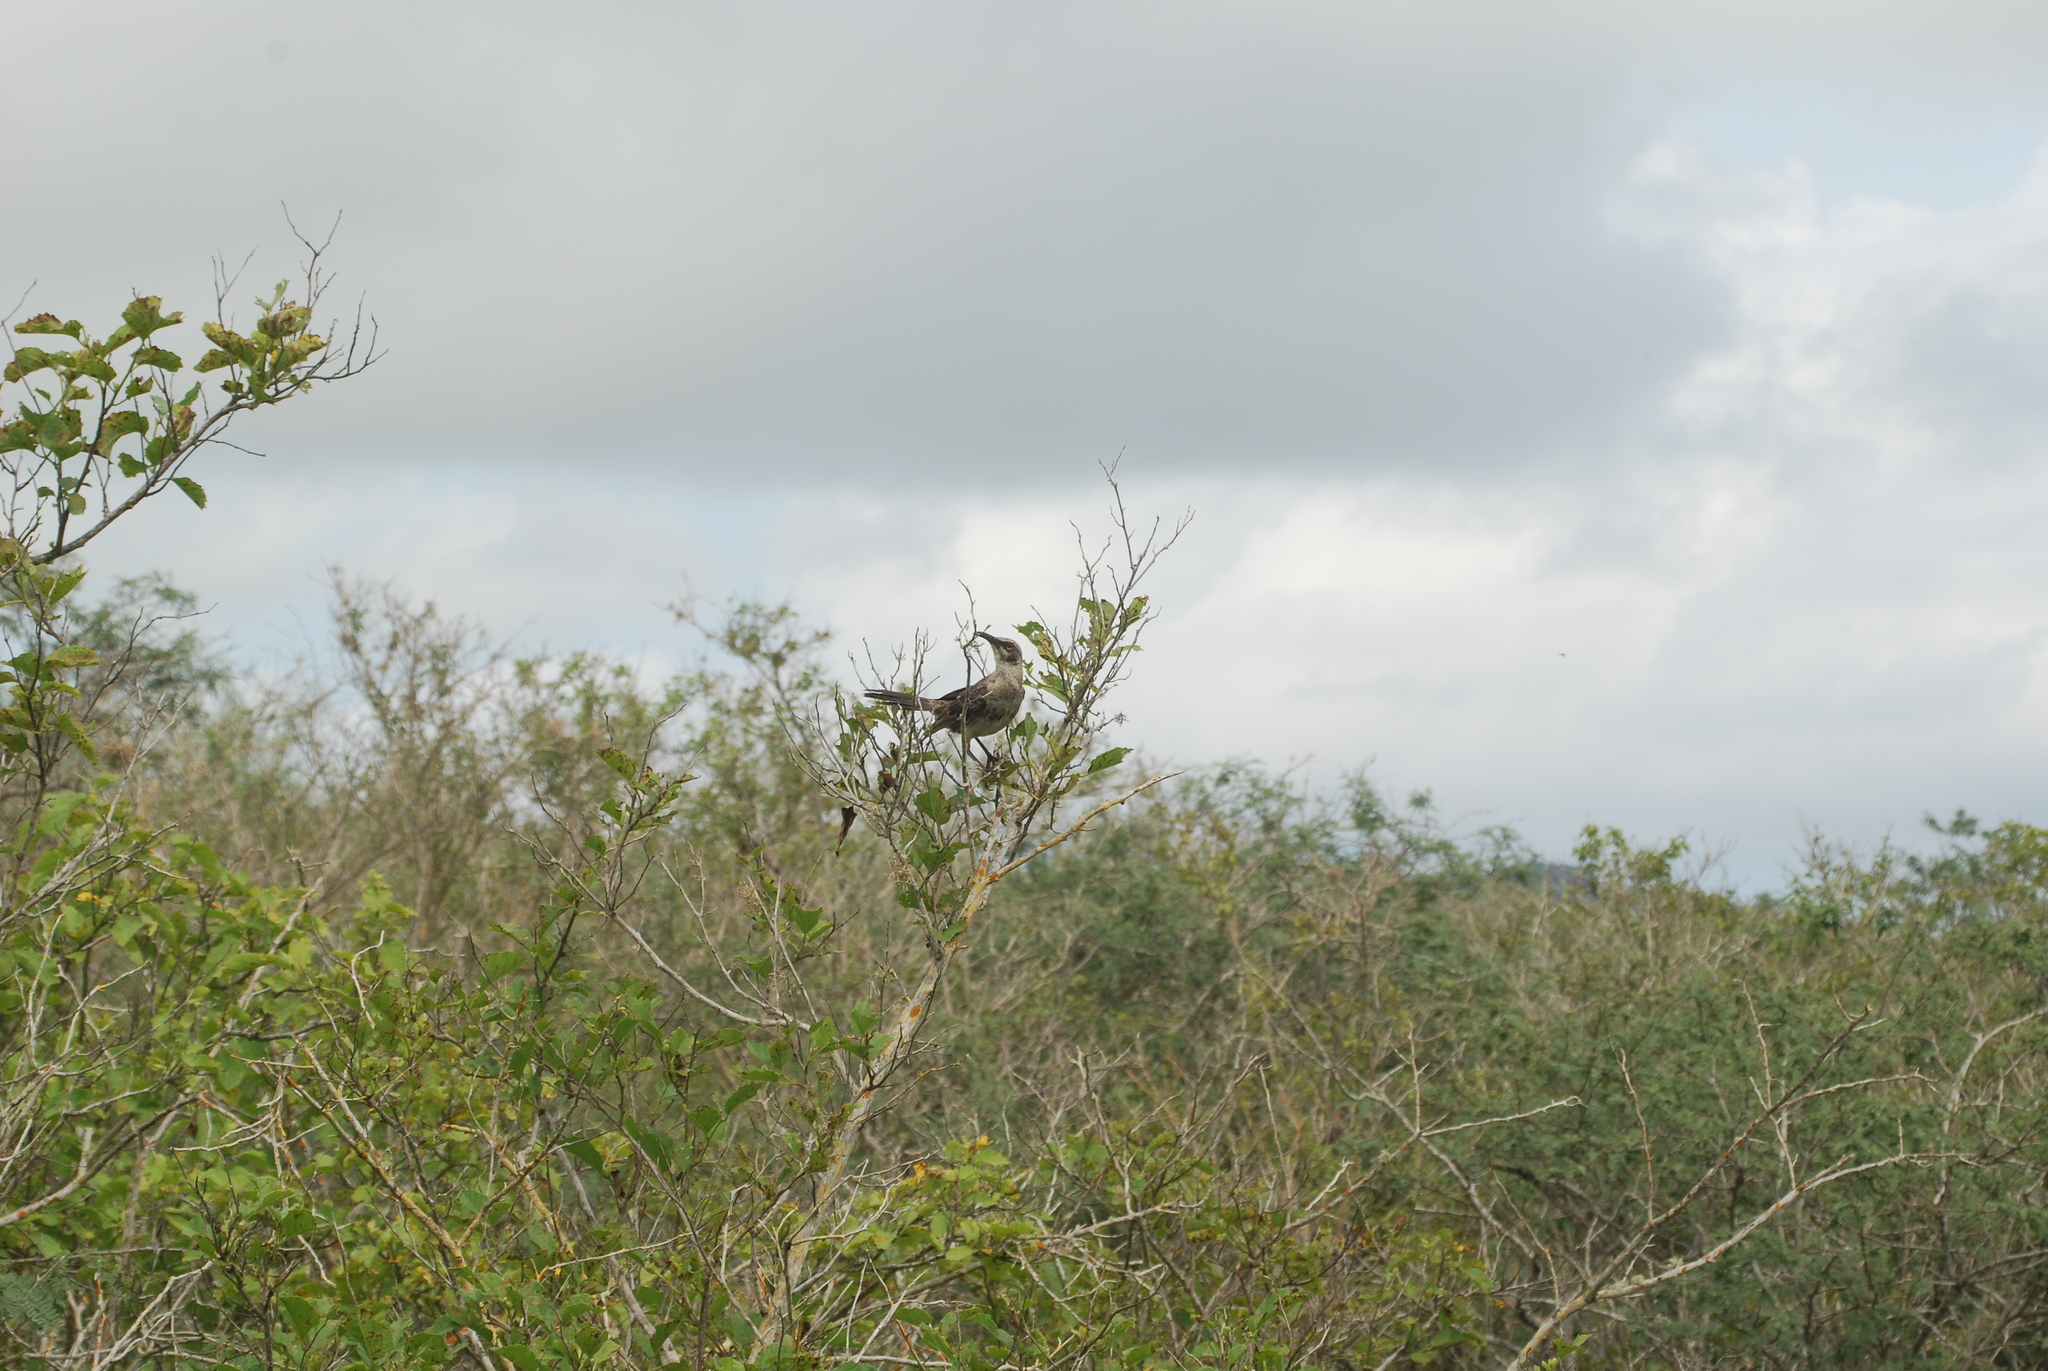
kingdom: Animalia
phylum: Chordata
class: Aves
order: Passeriformes
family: Mimidae
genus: Mimus
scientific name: Mimus macdonaldi
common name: Espanola mockingbird
